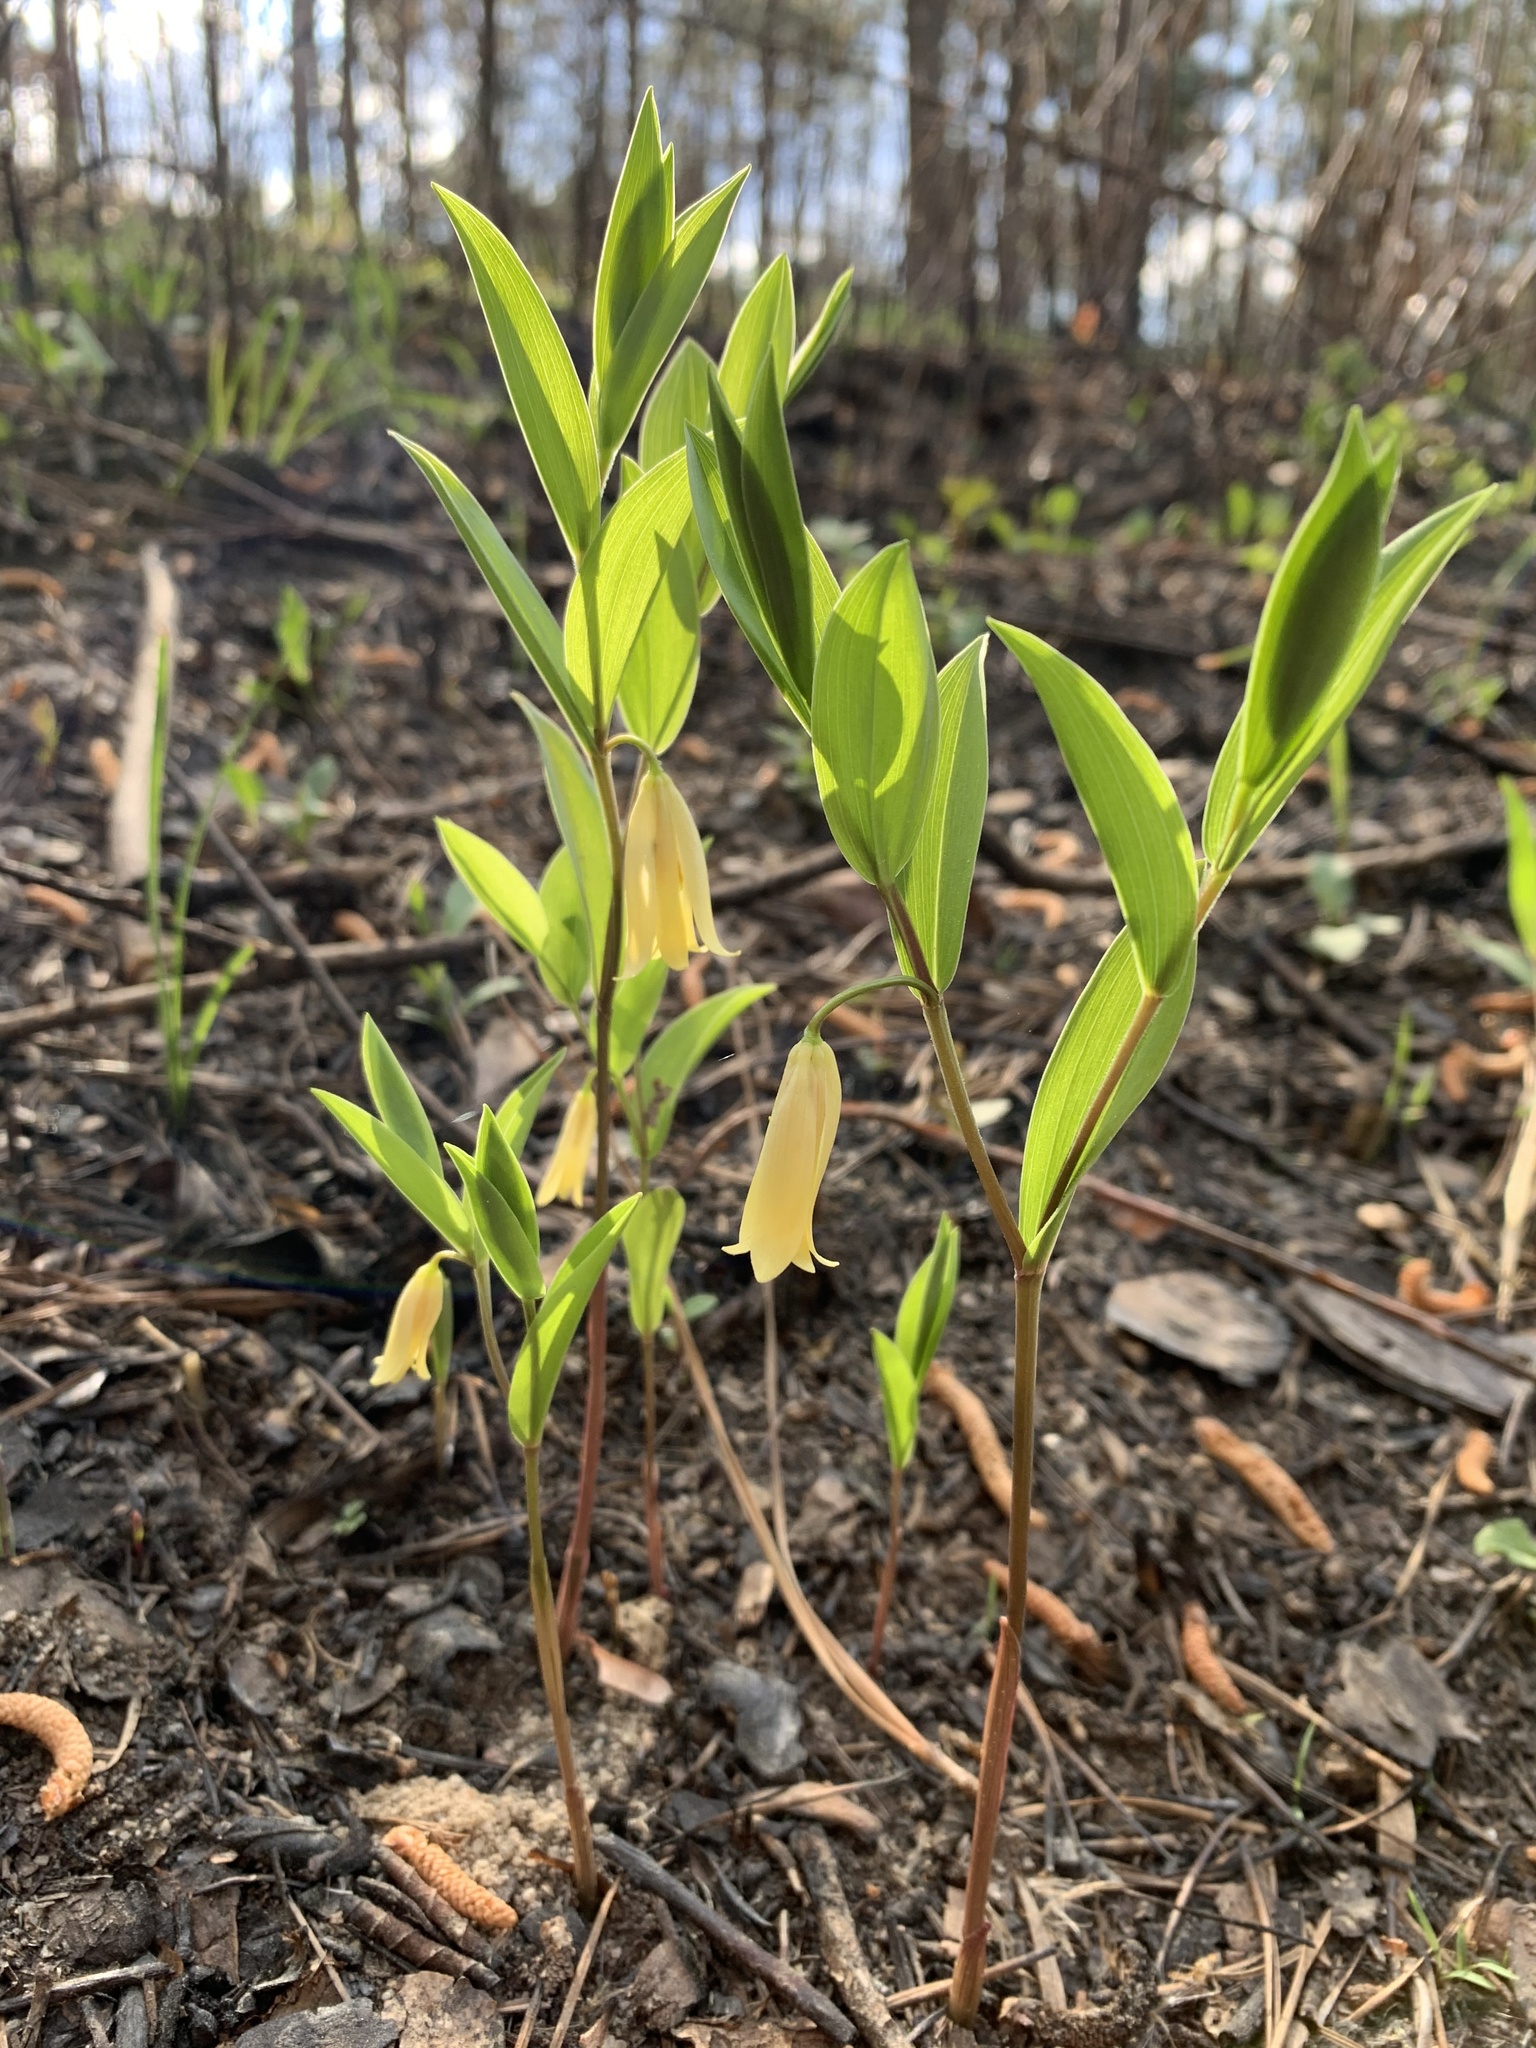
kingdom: Plantae
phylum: Tracheophyta
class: Liliopsida
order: Liliales
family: Colchicaceae
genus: Uvularia
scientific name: Uvularia puberula
